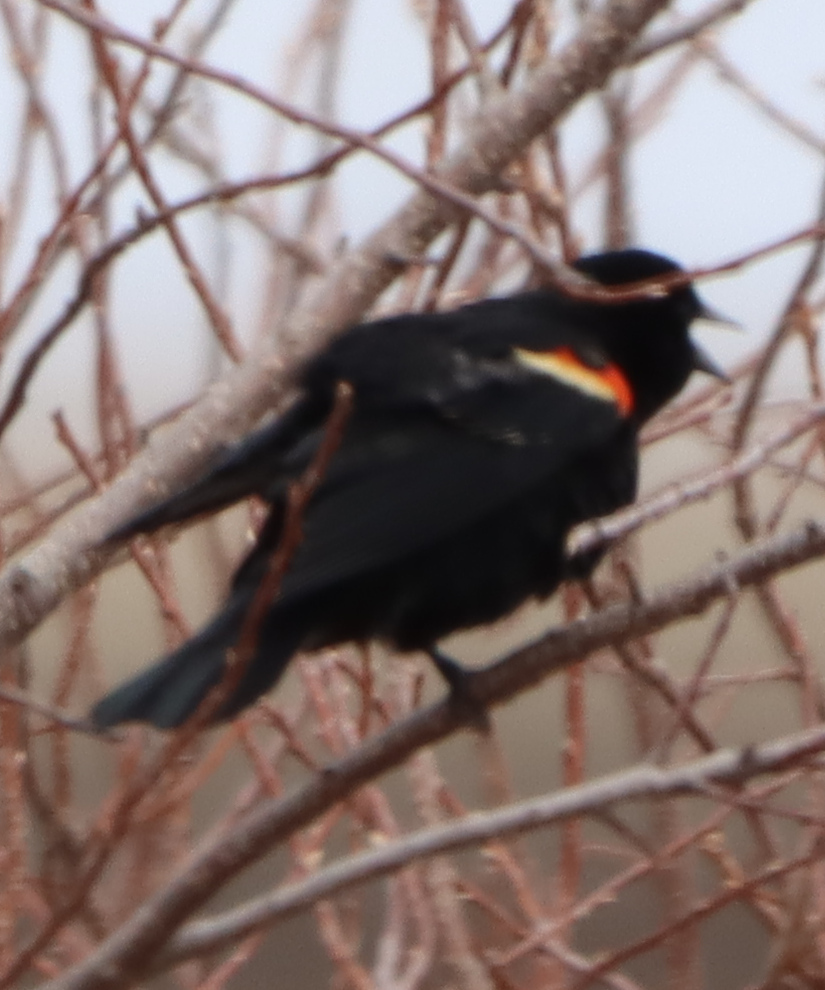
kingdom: Animalia
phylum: Chordata
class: Aves
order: Passeriformes
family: Icteridae
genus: Agelaius
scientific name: Agelaius phoeniceus
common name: Red-winged blackbird
